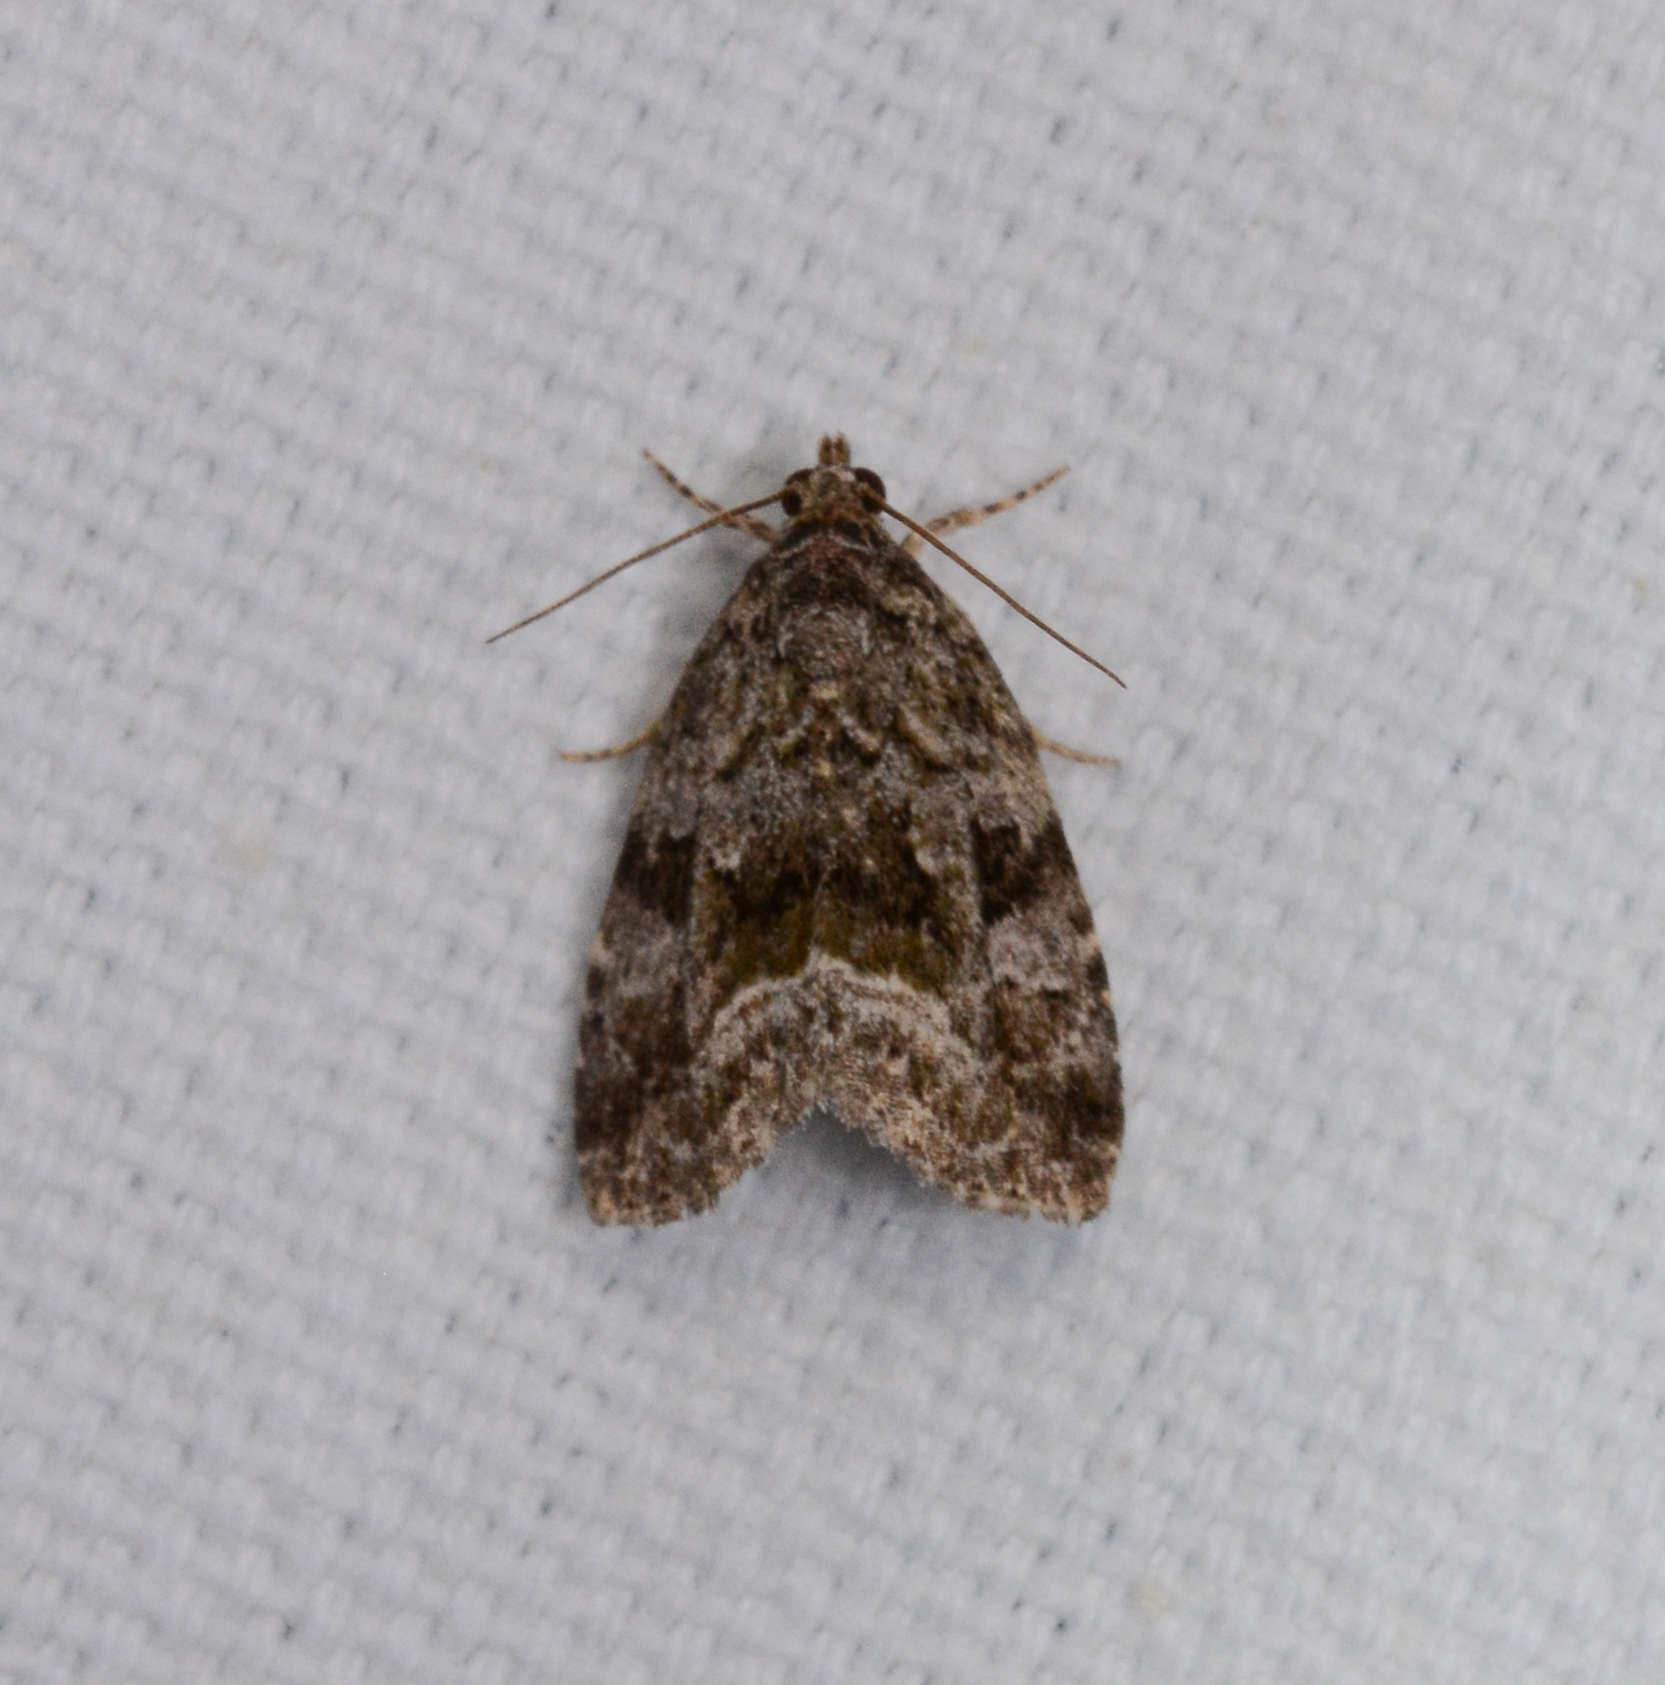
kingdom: Animalia
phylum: Arthropoda
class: Insecta
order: Lepidoptera
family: Noctuidae
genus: Protodeltote
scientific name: Protodeltote muscosula
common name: Large mossy glyph
